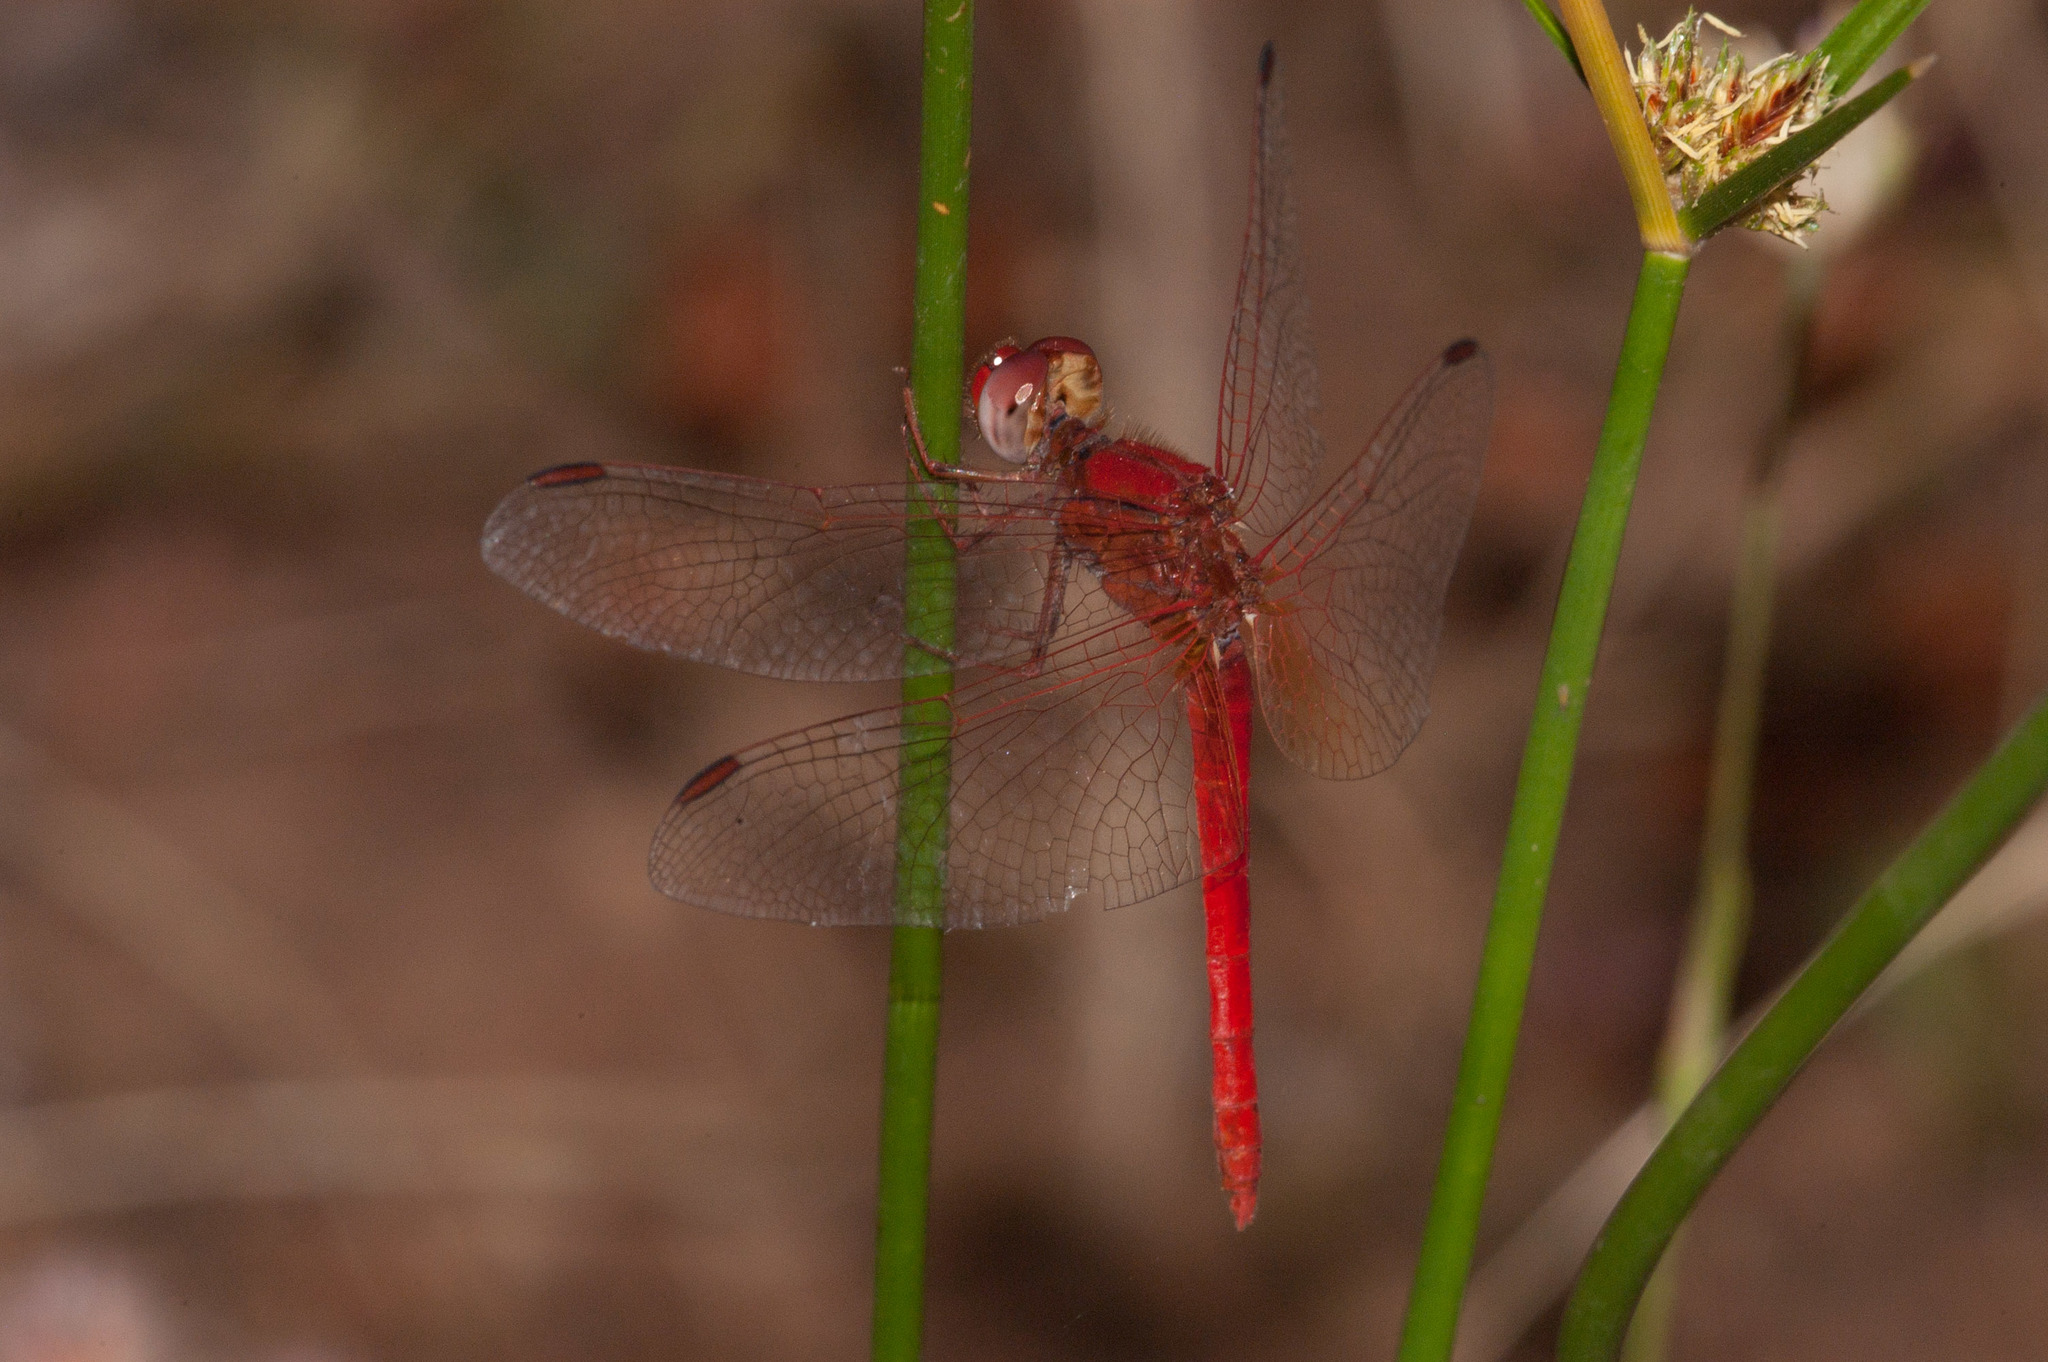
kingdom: Animalia
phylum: Arthropoda
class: Insecta
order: Odonata
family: Libellulidae
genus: Diplacodes
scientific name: Diplacodes haematodes
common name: Scarlet percher
